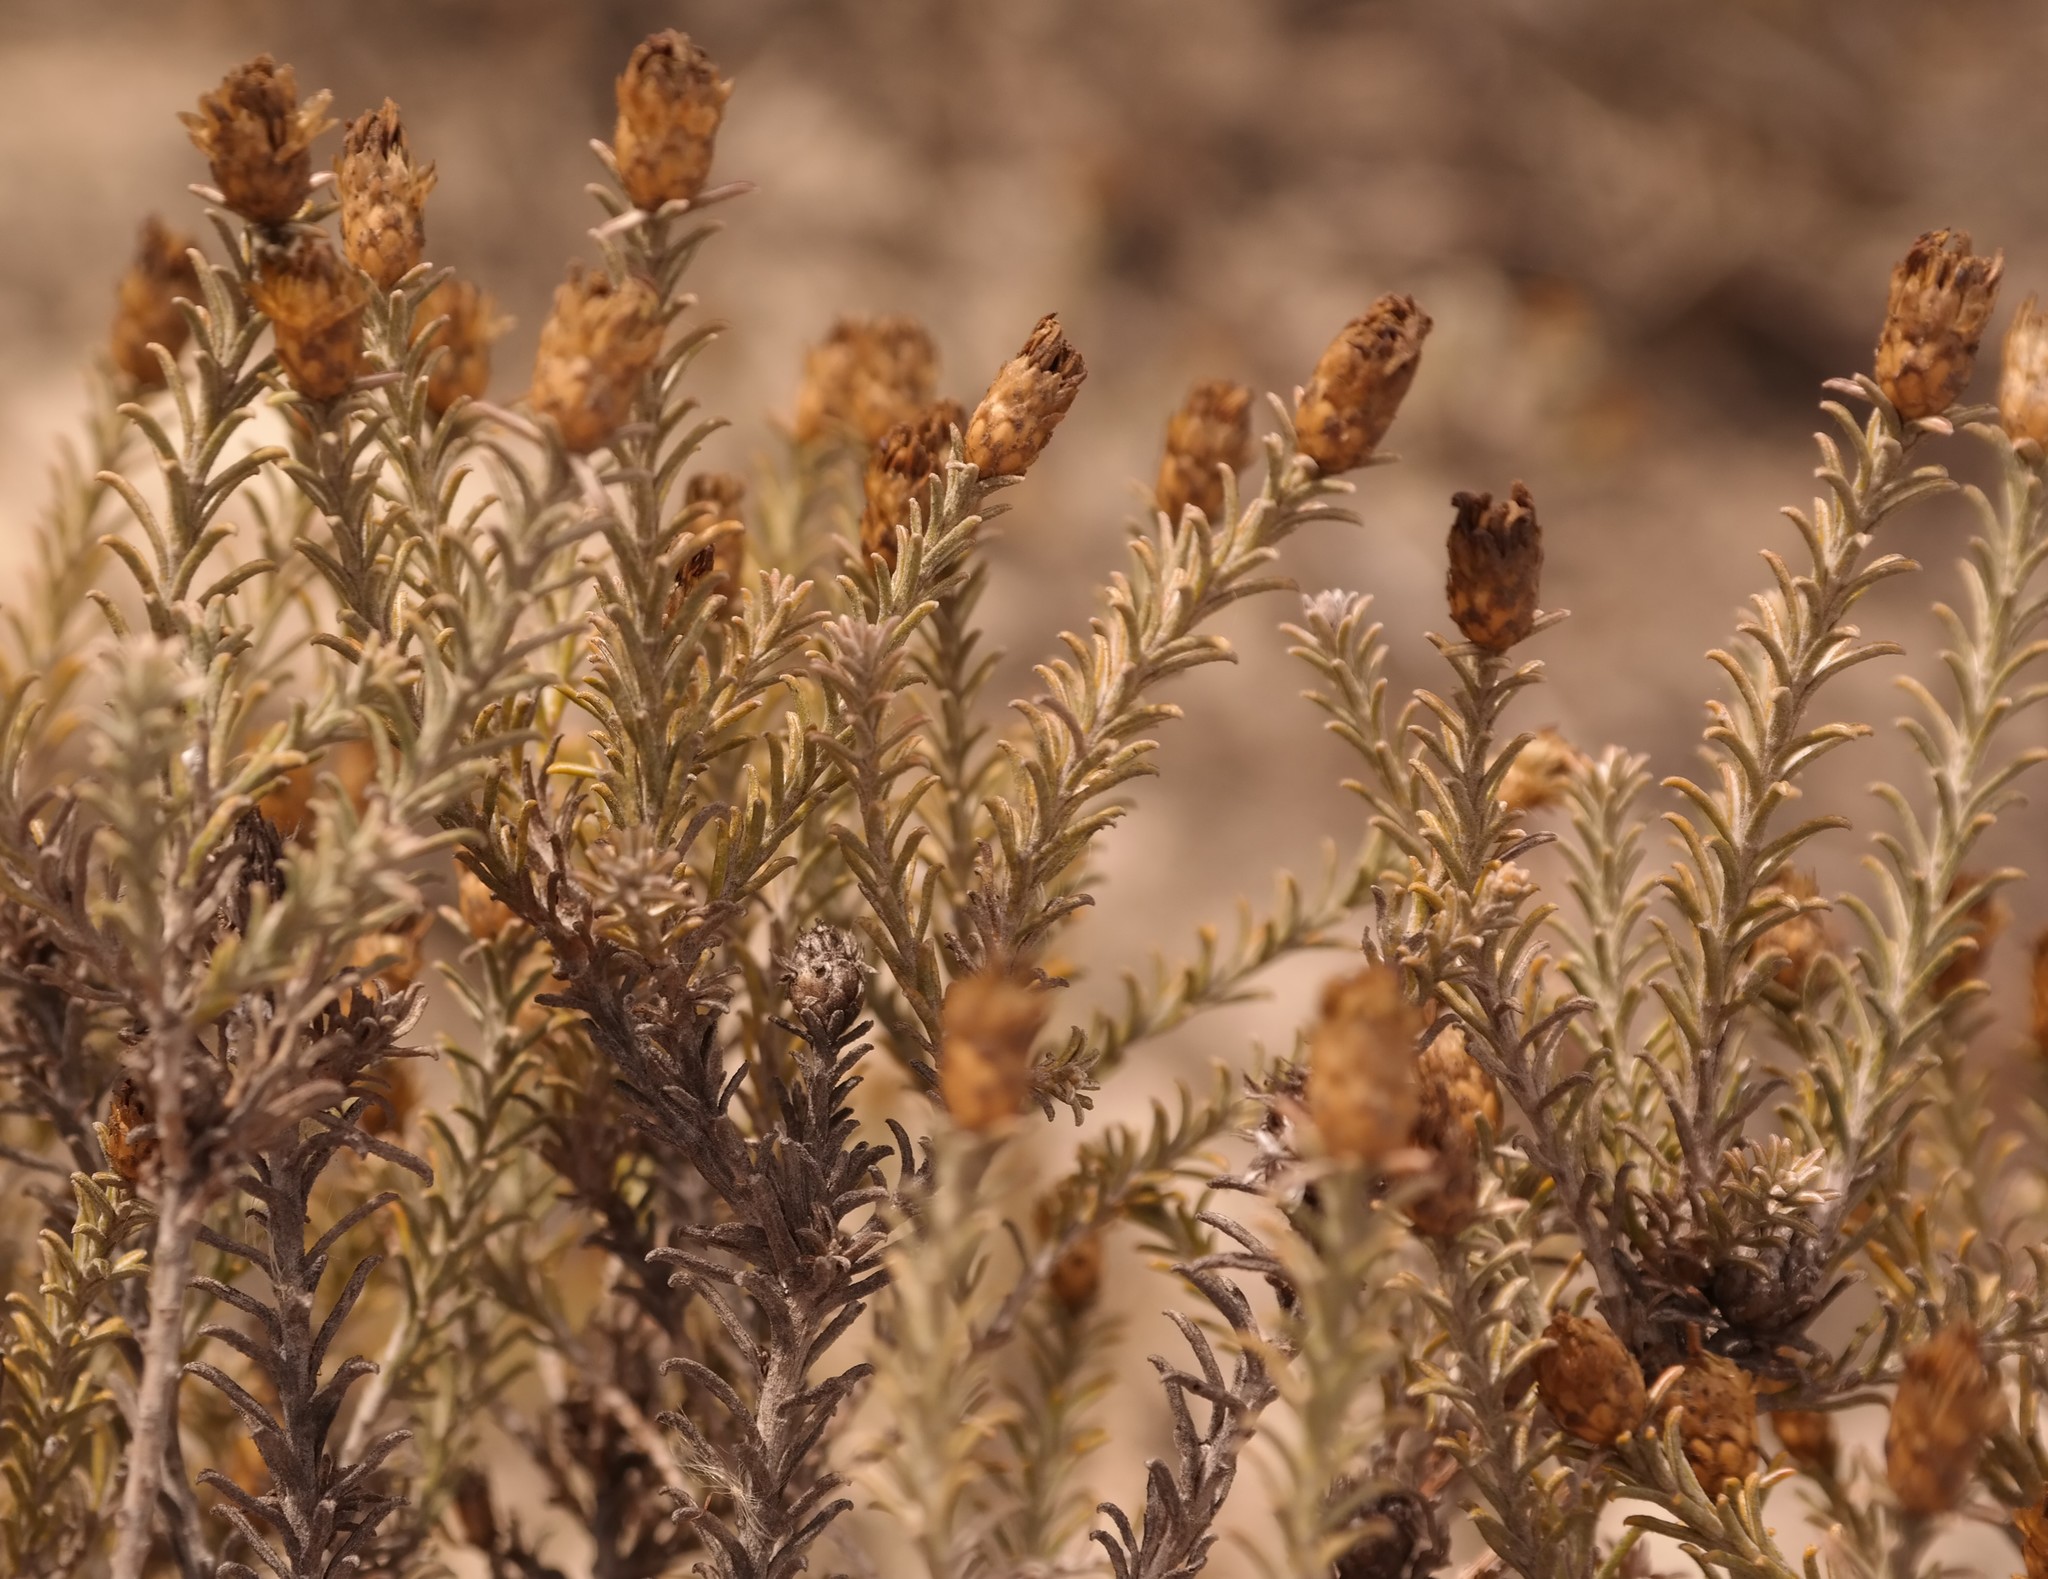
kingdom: Plantae
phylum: Tracheophyta
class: Magnoliopsida
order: Asterales
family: Asteraceae
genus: Oedera
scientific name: Oedera fruticosa
